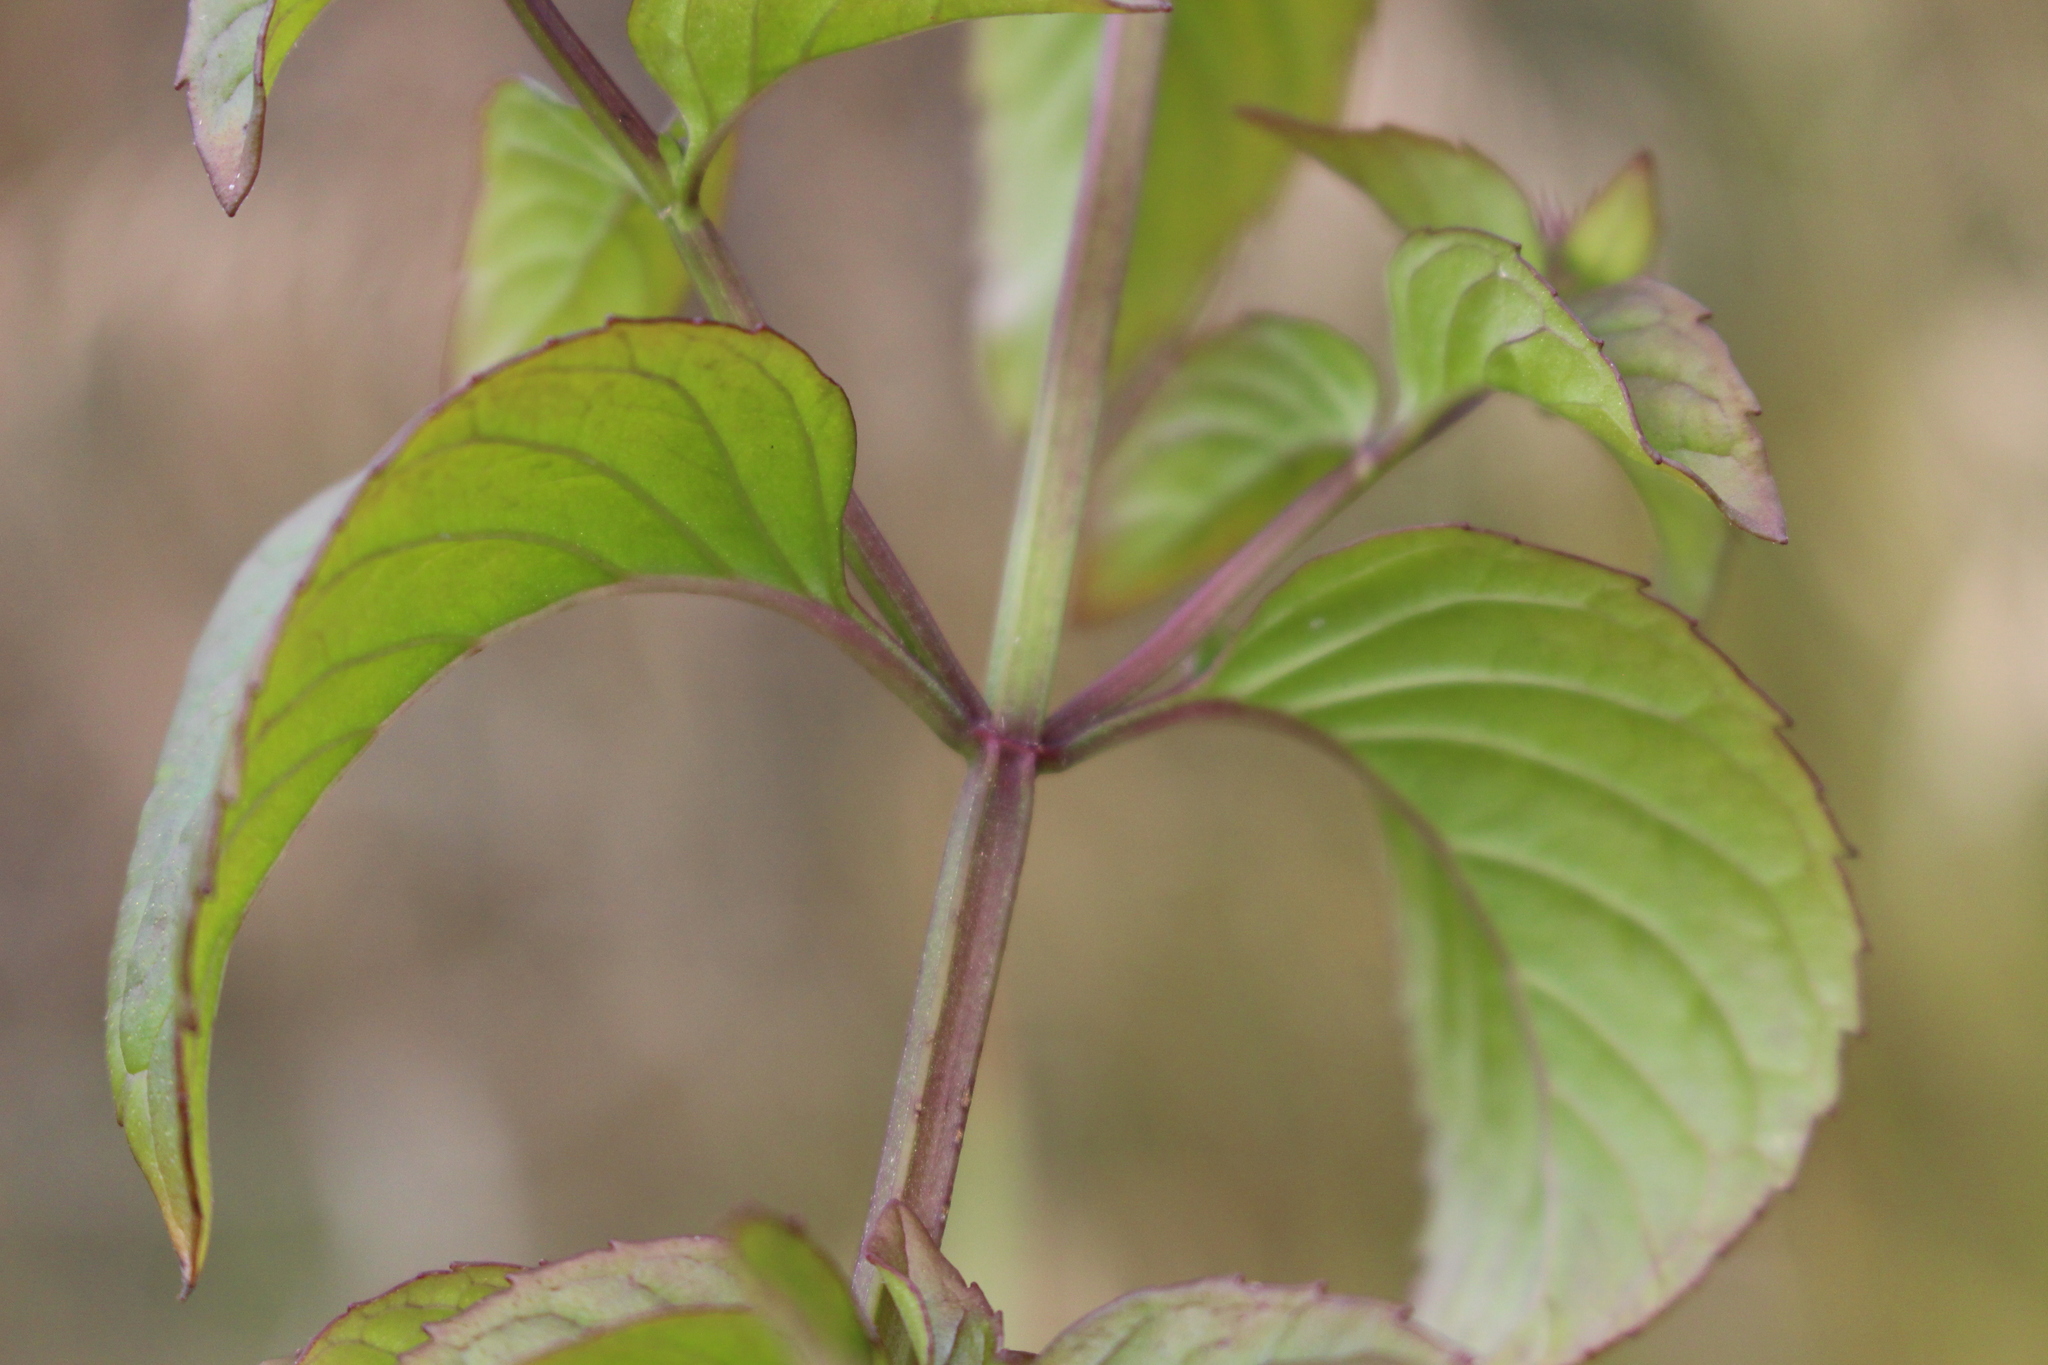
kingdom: Plantae
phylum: Tracheophyta
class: Magnoliopsida
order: Lamiales
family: Lamiaceae
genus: Mentha
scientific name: Mentha piperita
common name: Peppermint
